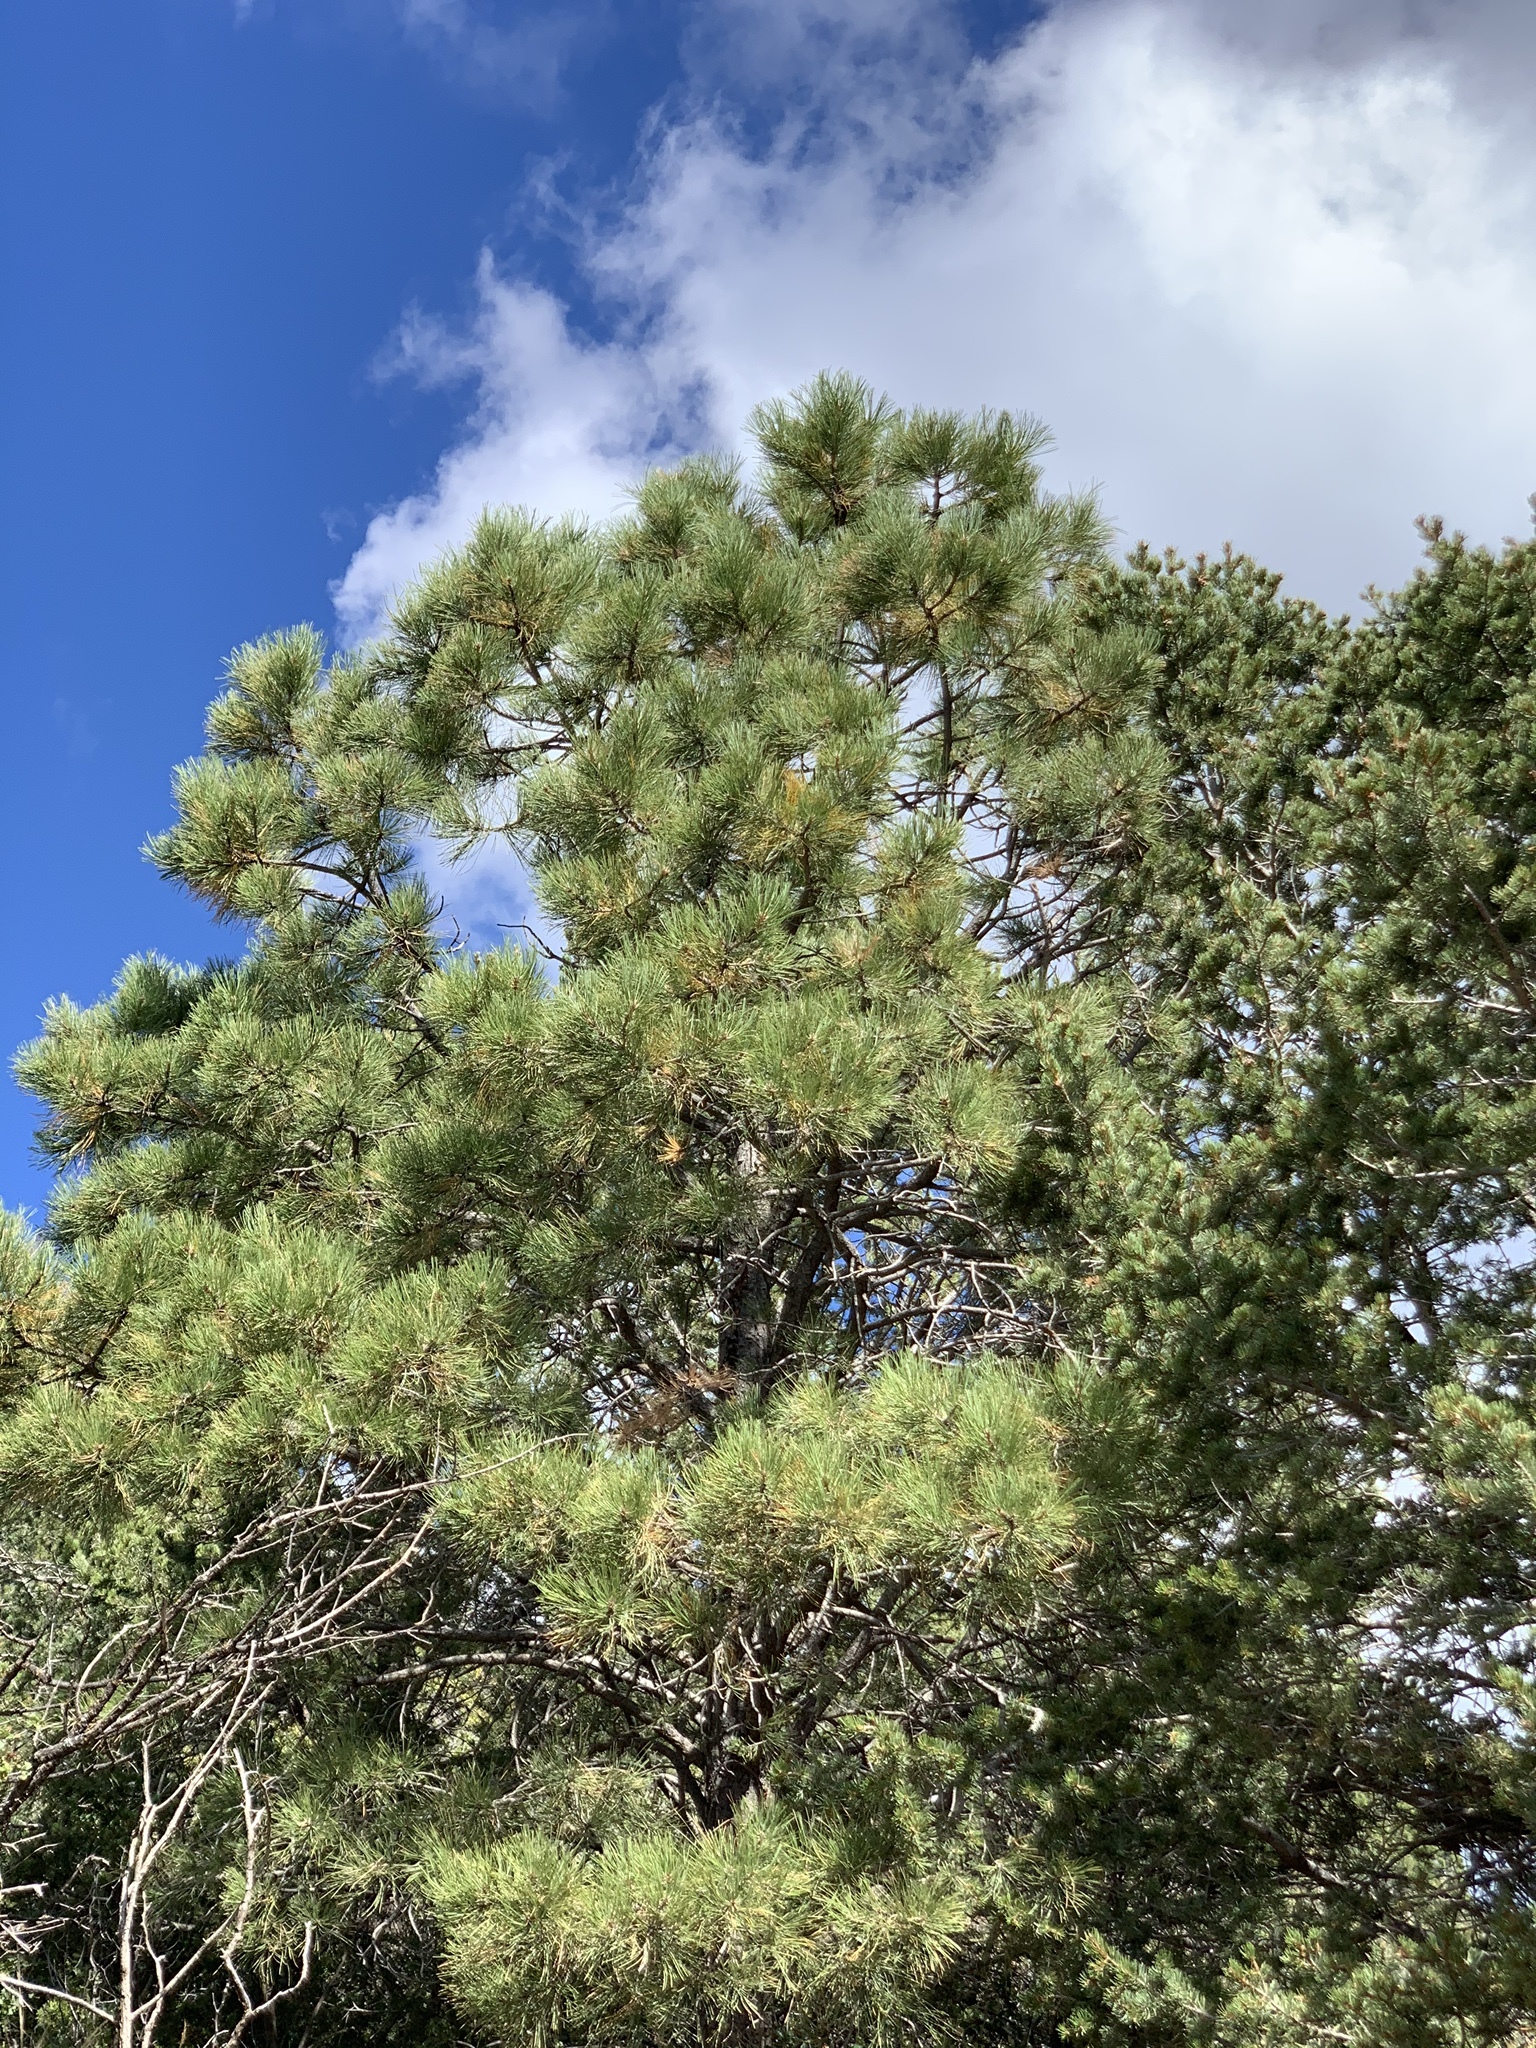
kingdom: Plantae
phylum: Tracheophyta
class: Pinopsida
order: Pinales
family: Pinaceae
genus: Pinus
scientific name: Pinus ponderosa
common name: Western yellow-pine
